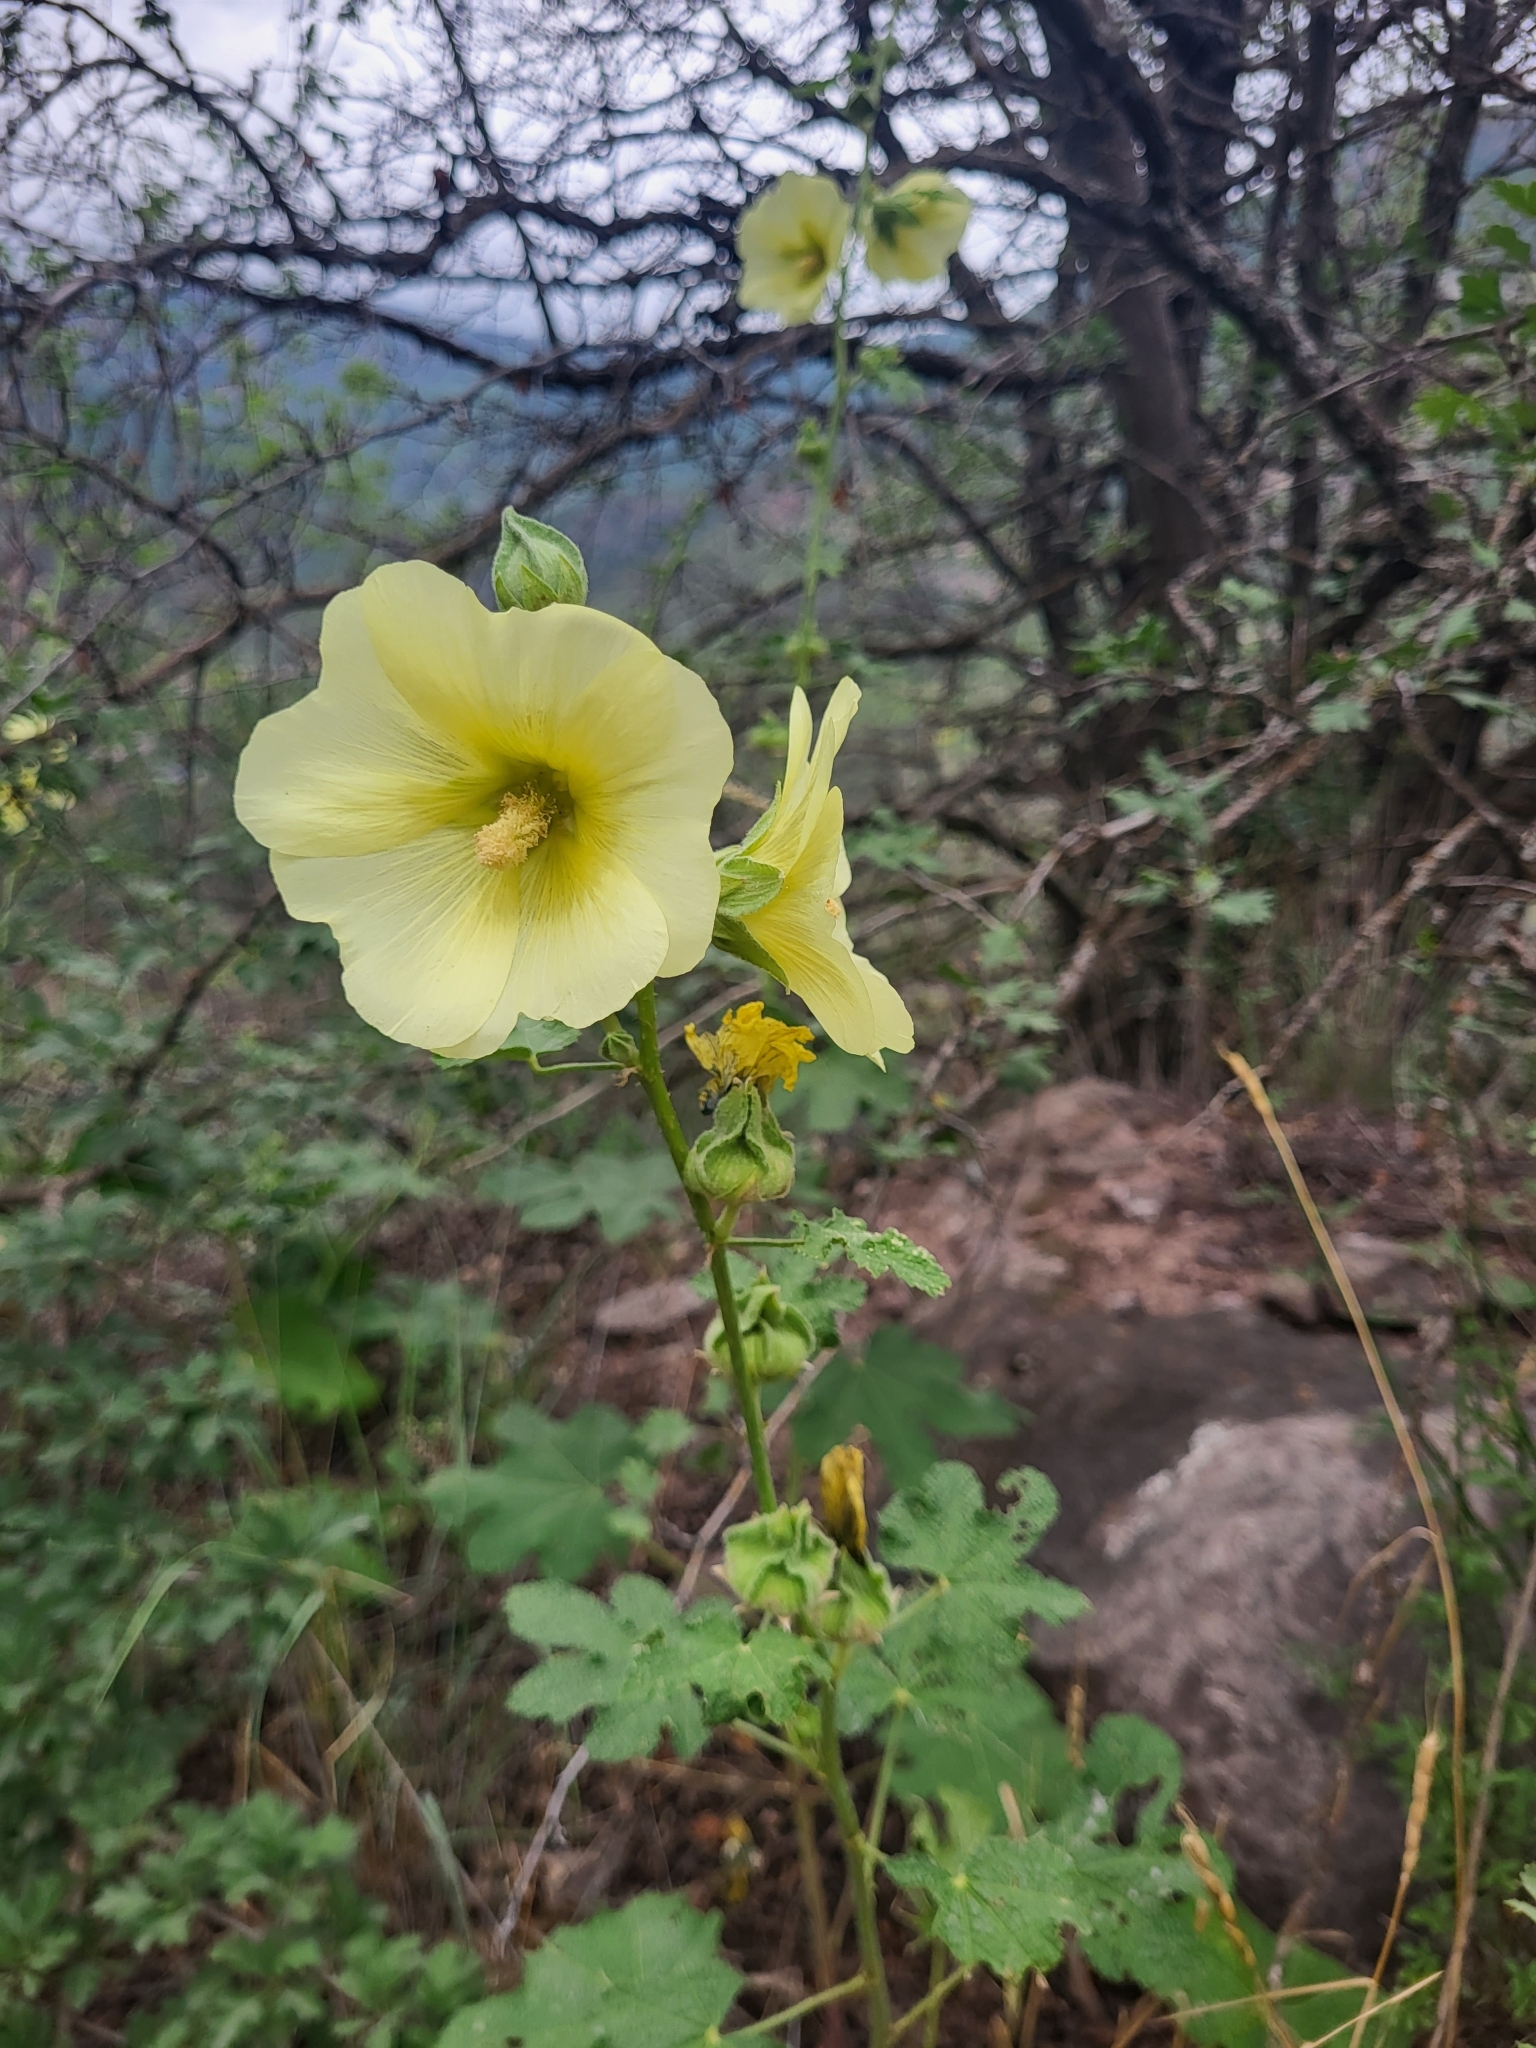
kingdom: Plantae
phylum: Tracheophyta
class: Magnoliopsida
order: Malvales
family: Malvaceae
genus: Alcea
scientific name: Alcea rugosa
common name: Russian hollyhock
